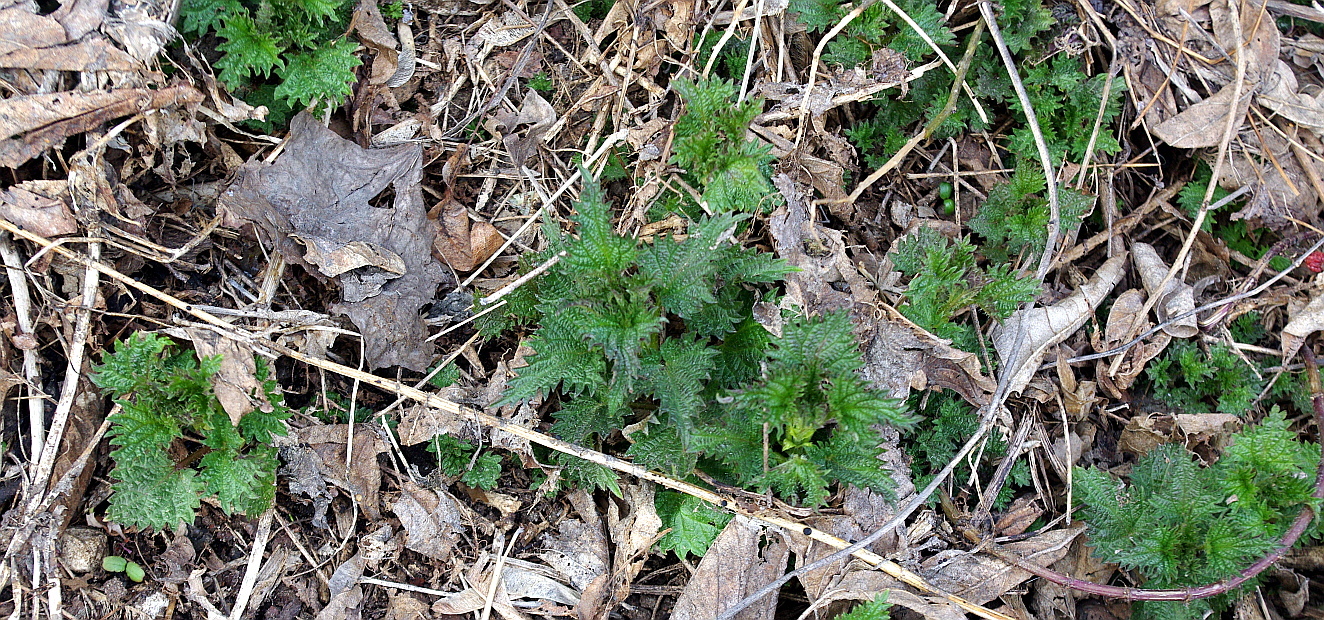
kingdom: Plantae
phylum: Tracheophyta
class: Magnoliopsida
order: Rosales
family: Urticaceae
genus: Urtica
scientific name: Urtica dioica
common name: Common nettle
